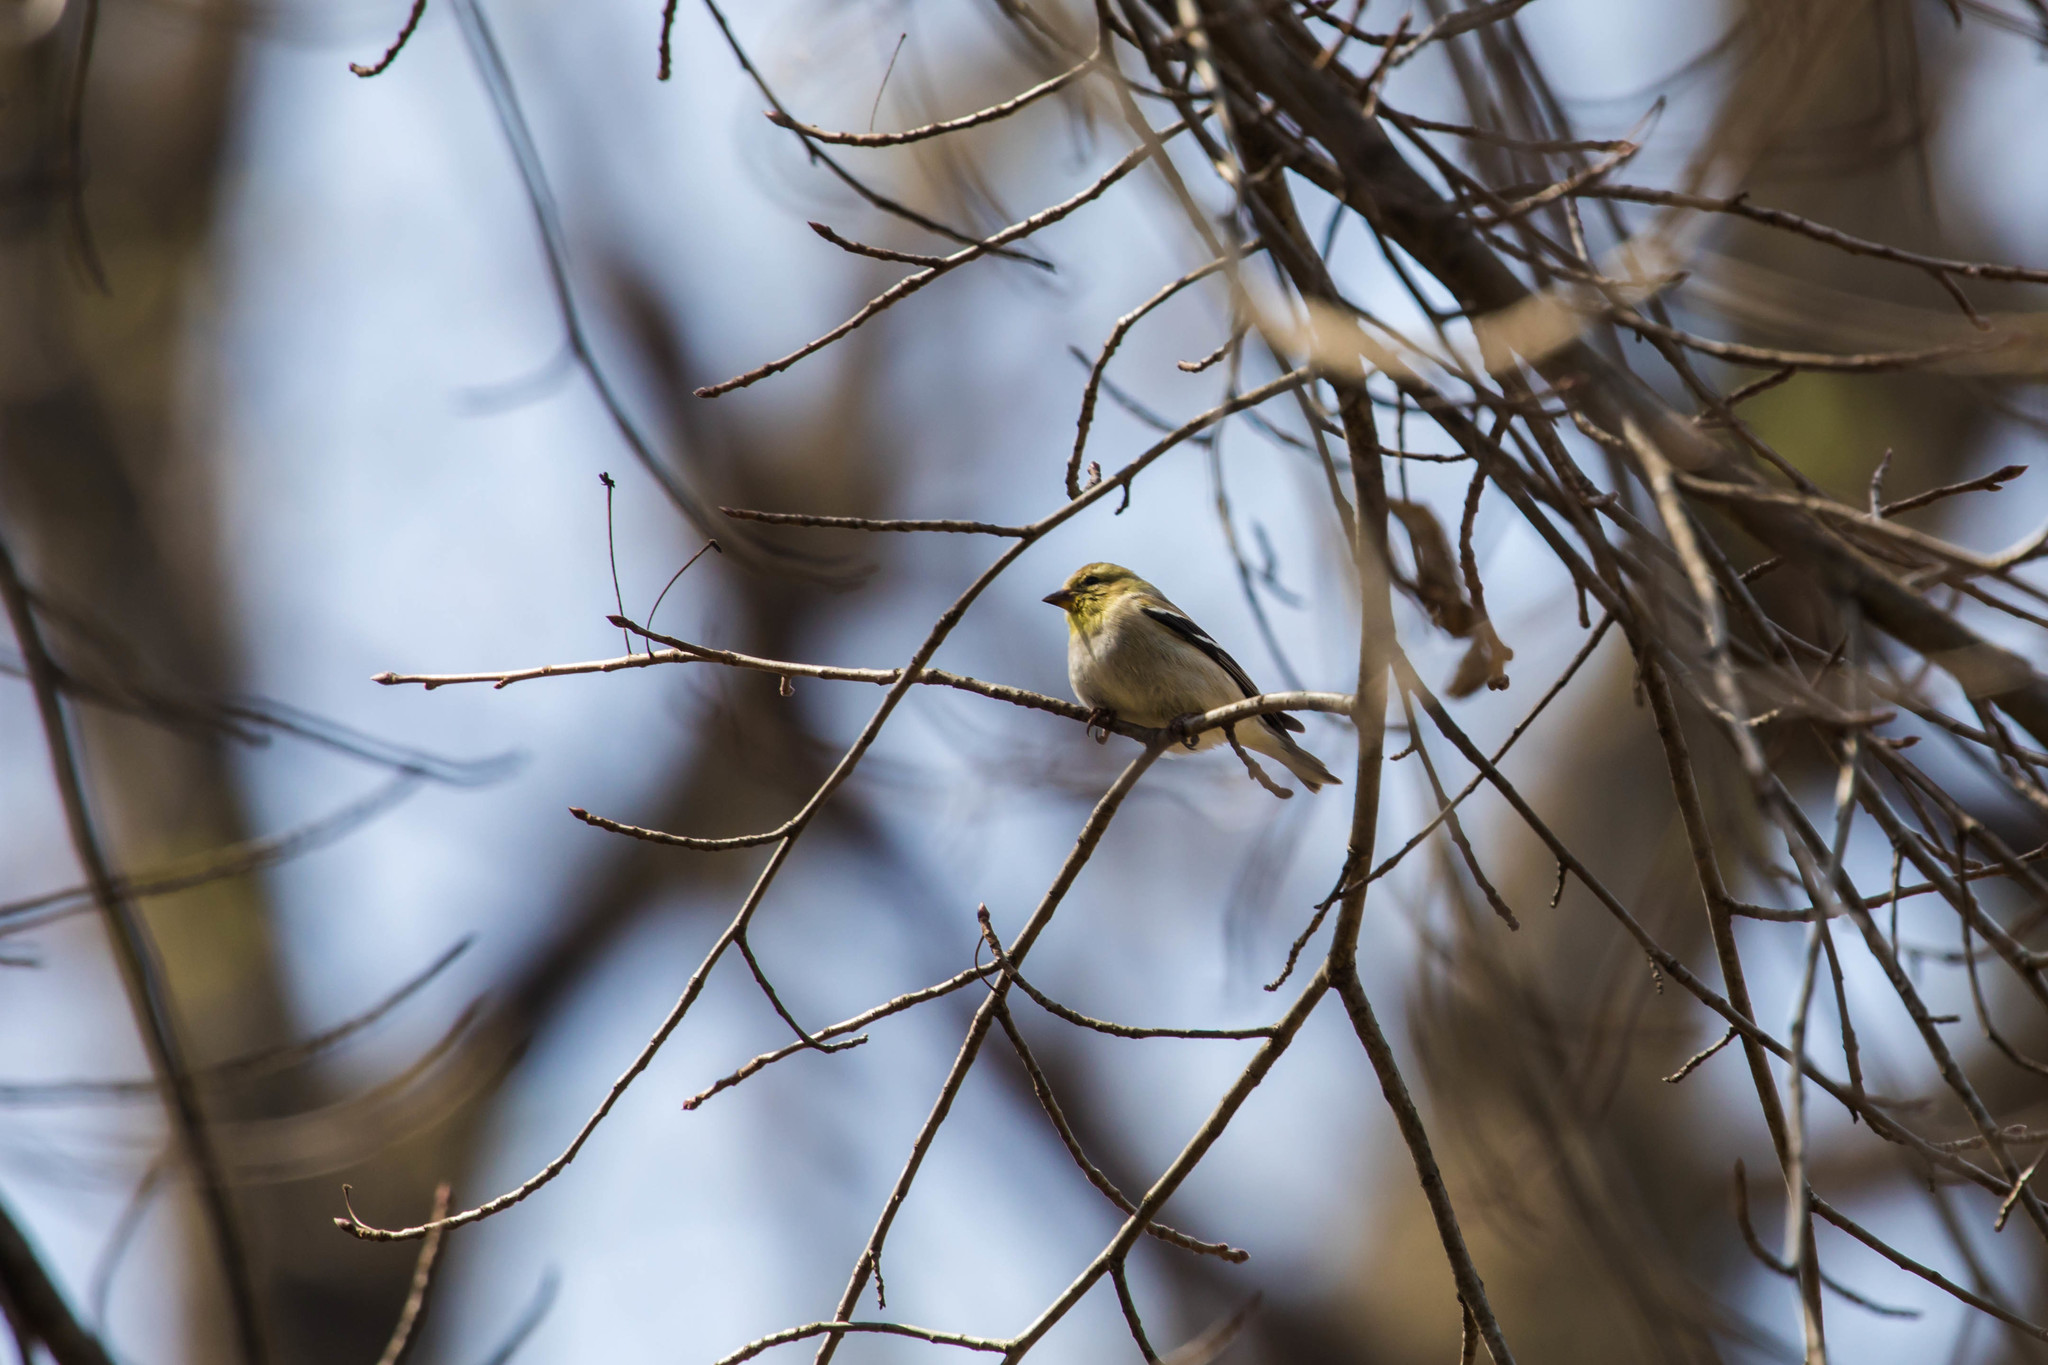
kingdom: Animalia
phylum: Chordata
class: Aves
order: Passeriformes
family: Fringillidae
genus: Spinus
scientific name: Spinus tristis
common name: American goldfinch
